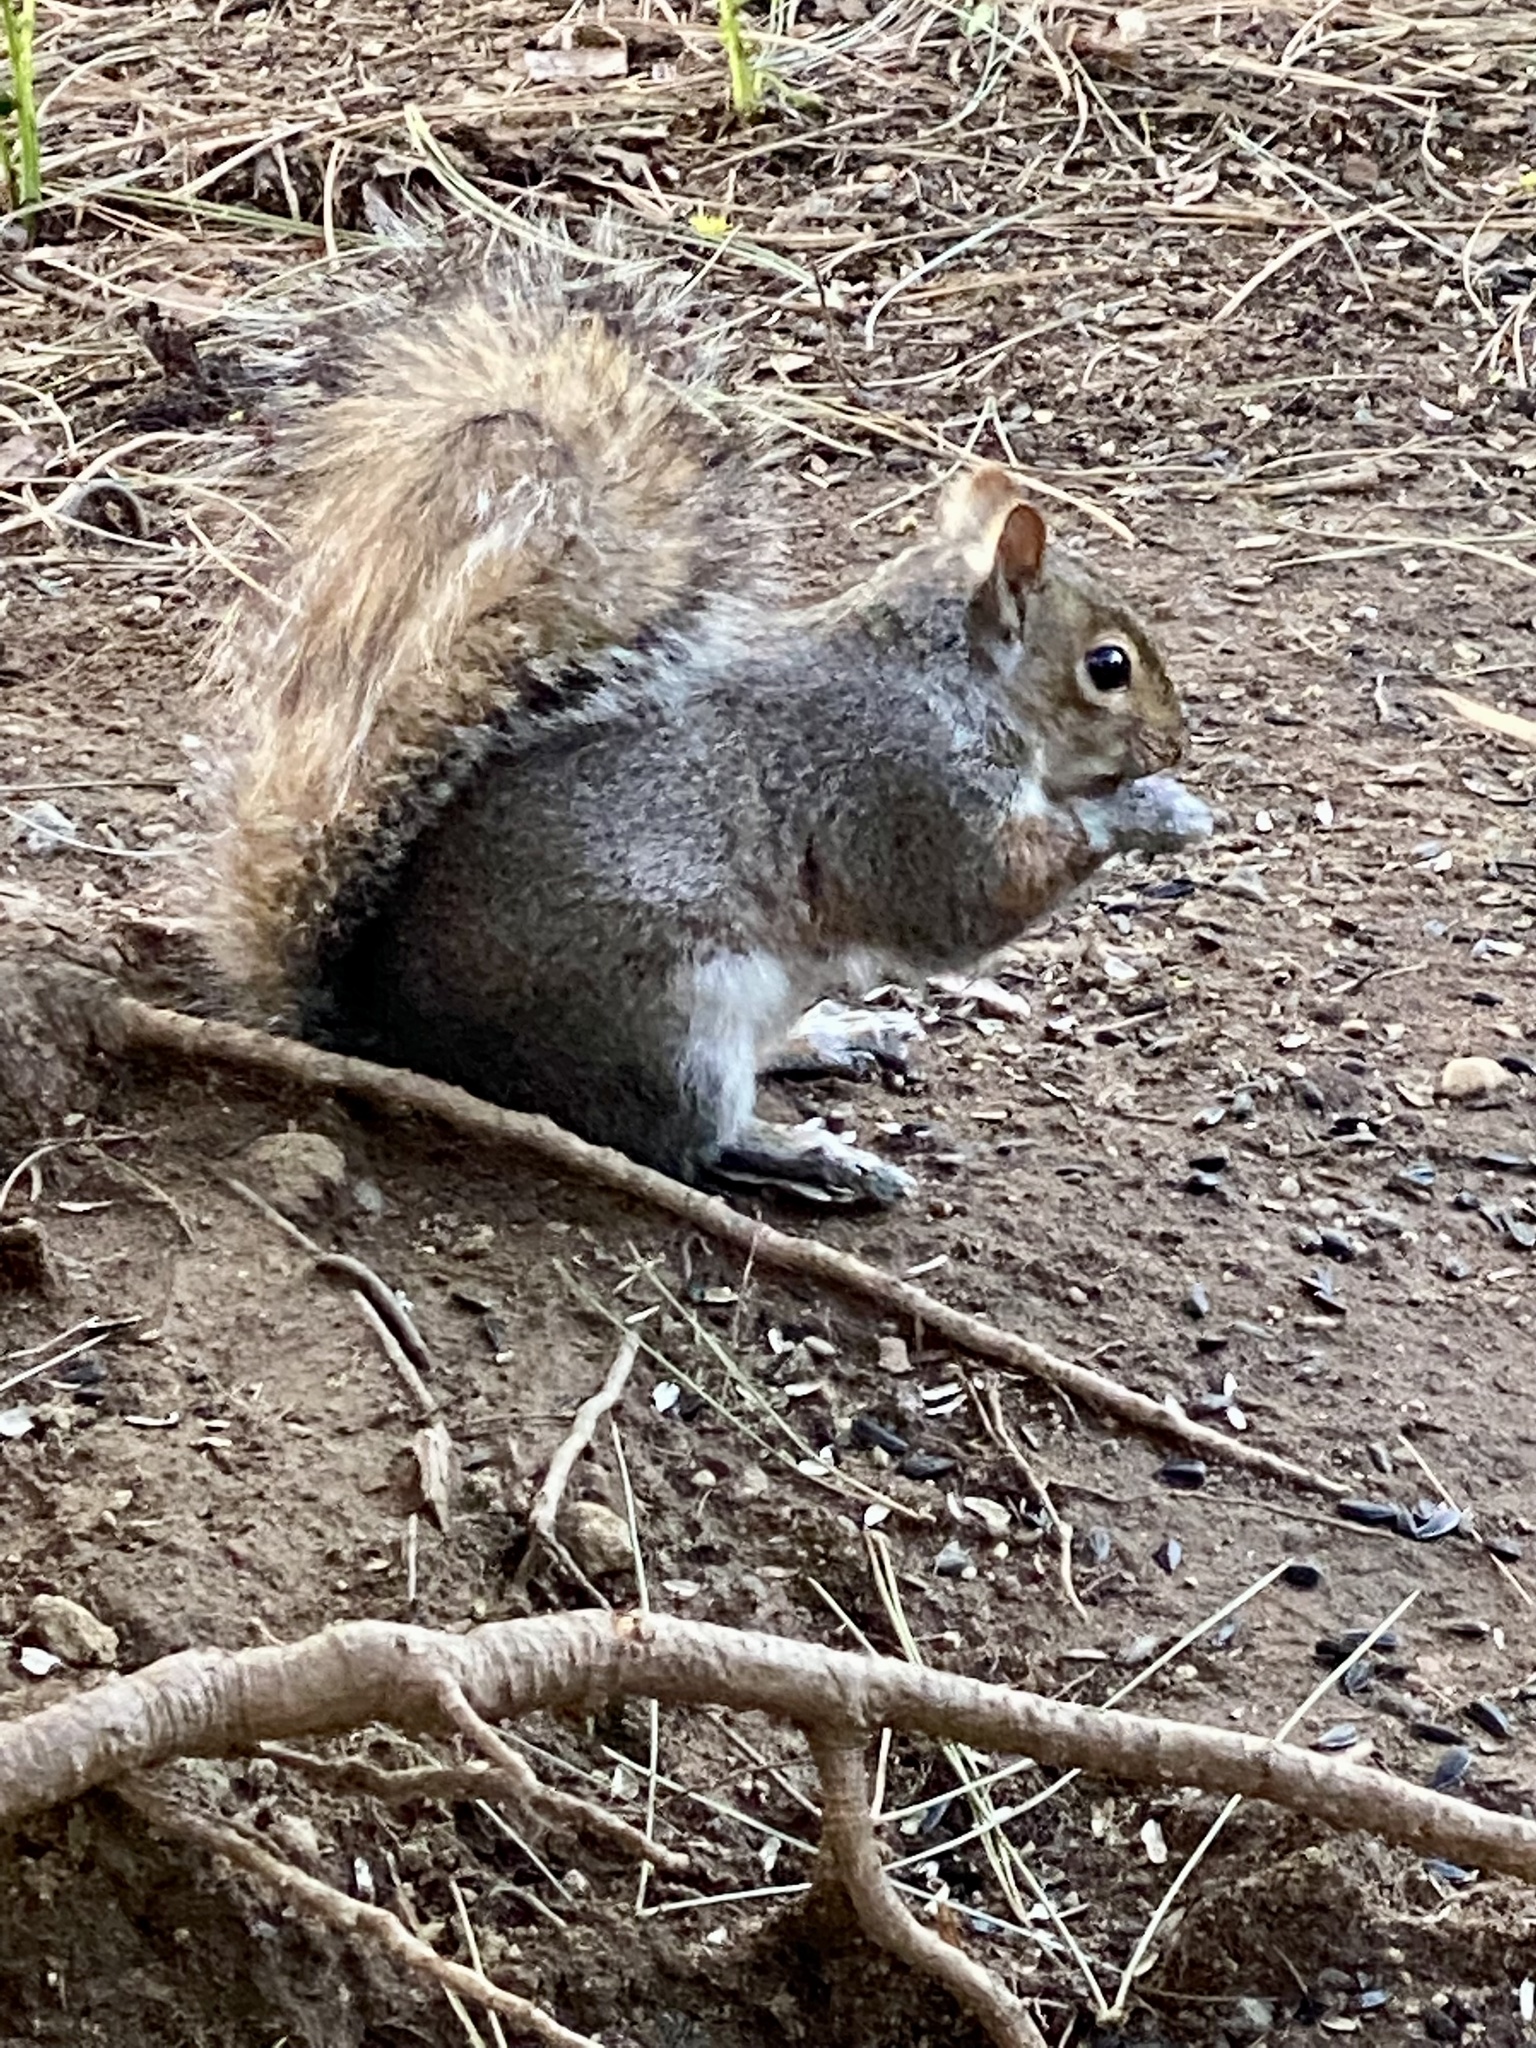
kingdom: Animalia
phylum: Chordata
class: Mammalia
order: Rodentia
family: Sciuridae
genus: Sciurus
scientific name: Sciurus carolinensis
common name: Eastern gray squirrel
